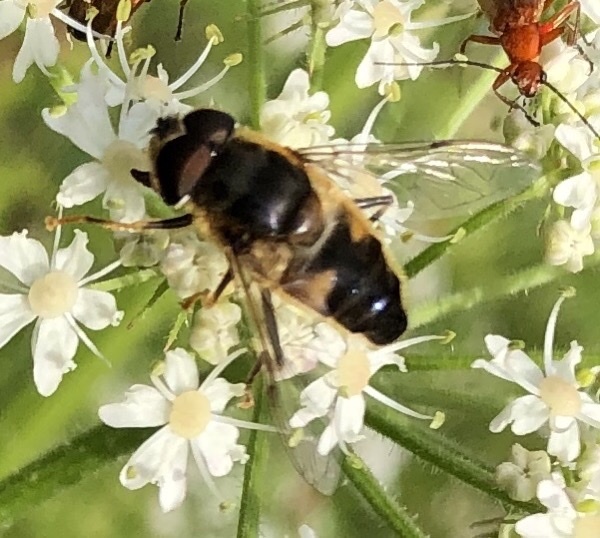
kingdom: Animalia
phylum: Arthropoda
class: Insecta
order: Diptera
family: Syrphidae
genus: Eristalis
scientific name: Eristalis pertinax
